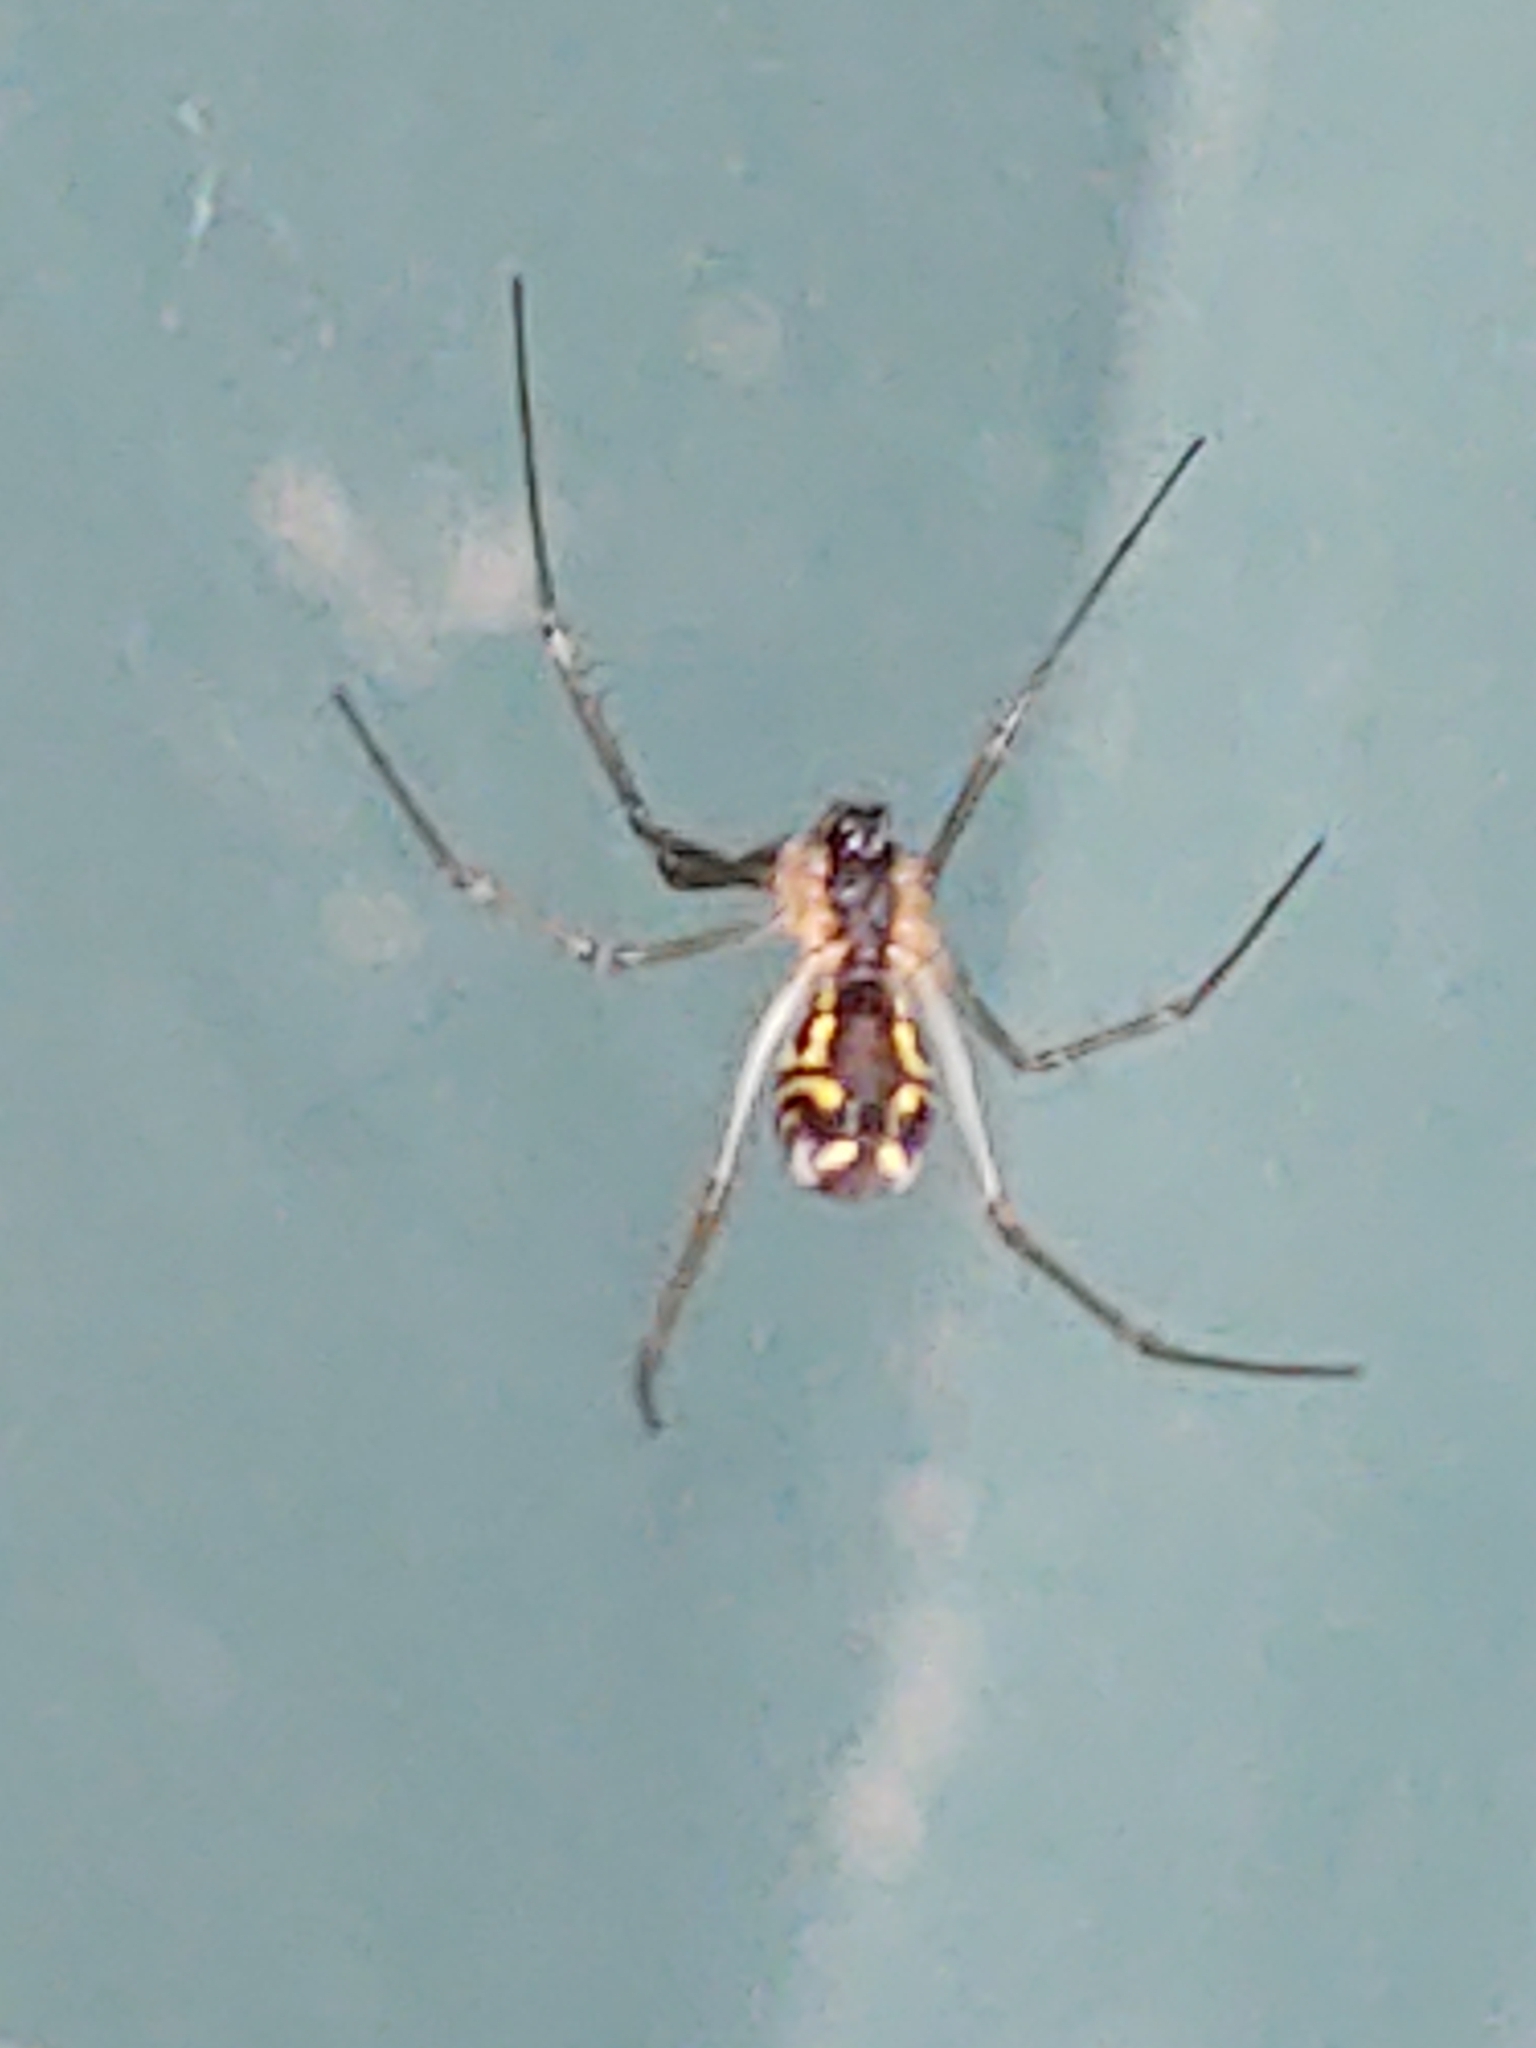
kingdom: Animalia
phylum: Arthropoda
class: Arachnida
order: Araneae
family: Linyphiidae
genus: Neriene
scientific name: Neriene radiata
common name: Filmy dome spider
